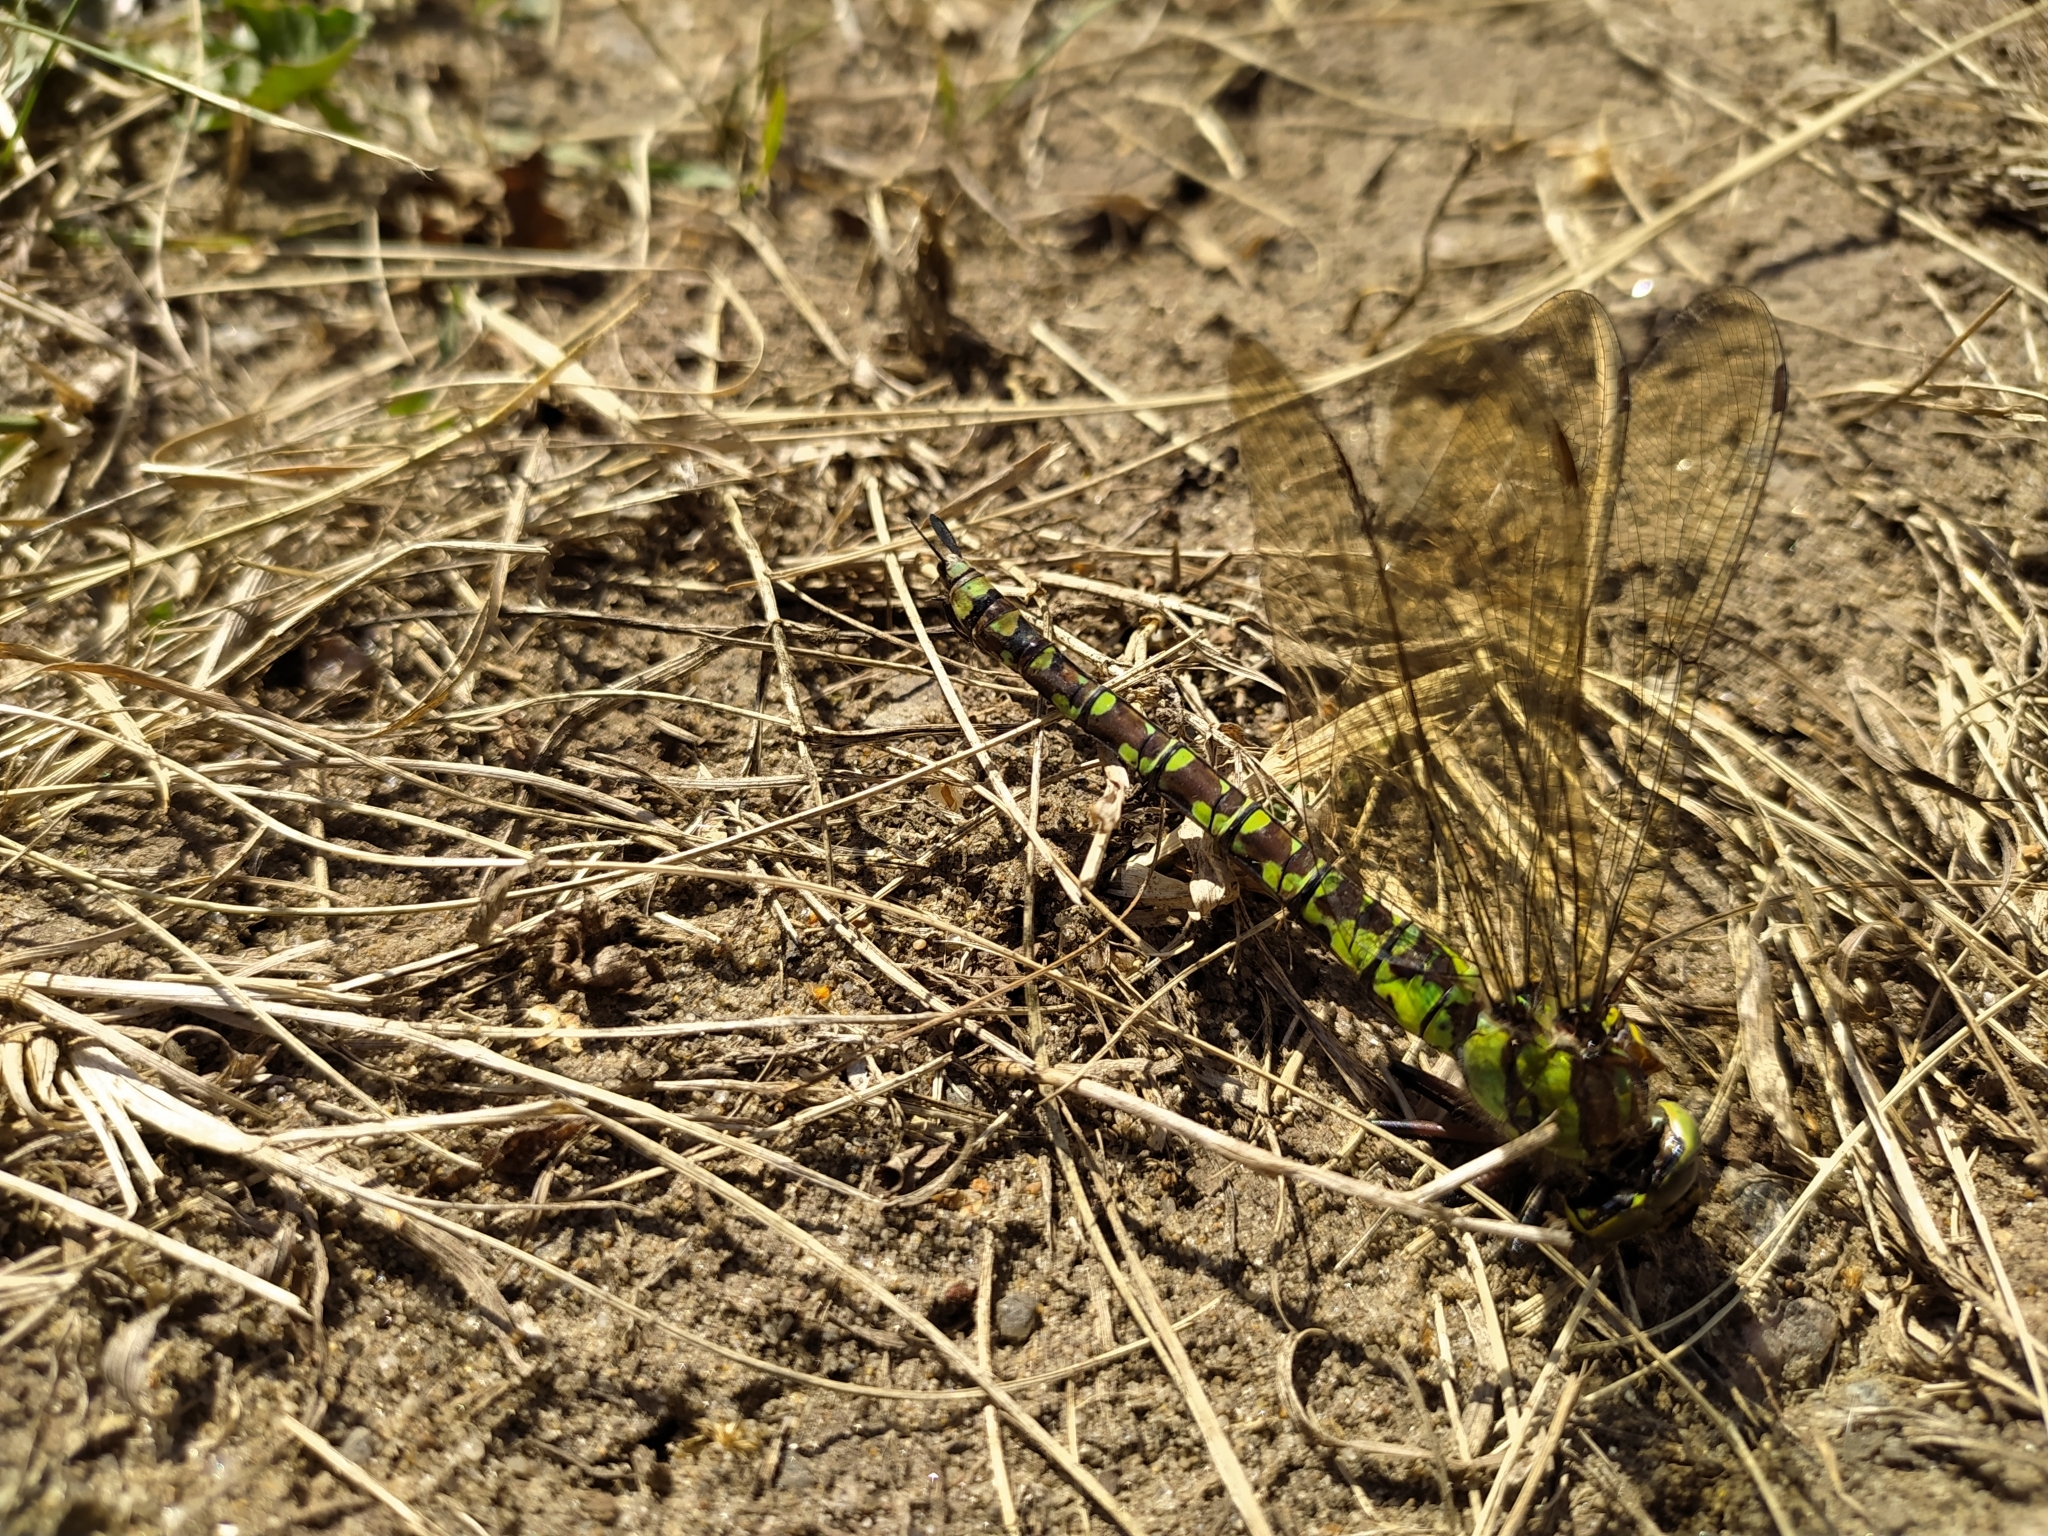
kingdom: Animalia
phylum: Arthropoda
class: Insecta
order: Odonata
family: Aeshnidae
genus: Aeshna
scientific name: Aeshna cyanea
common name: Southern hawker
